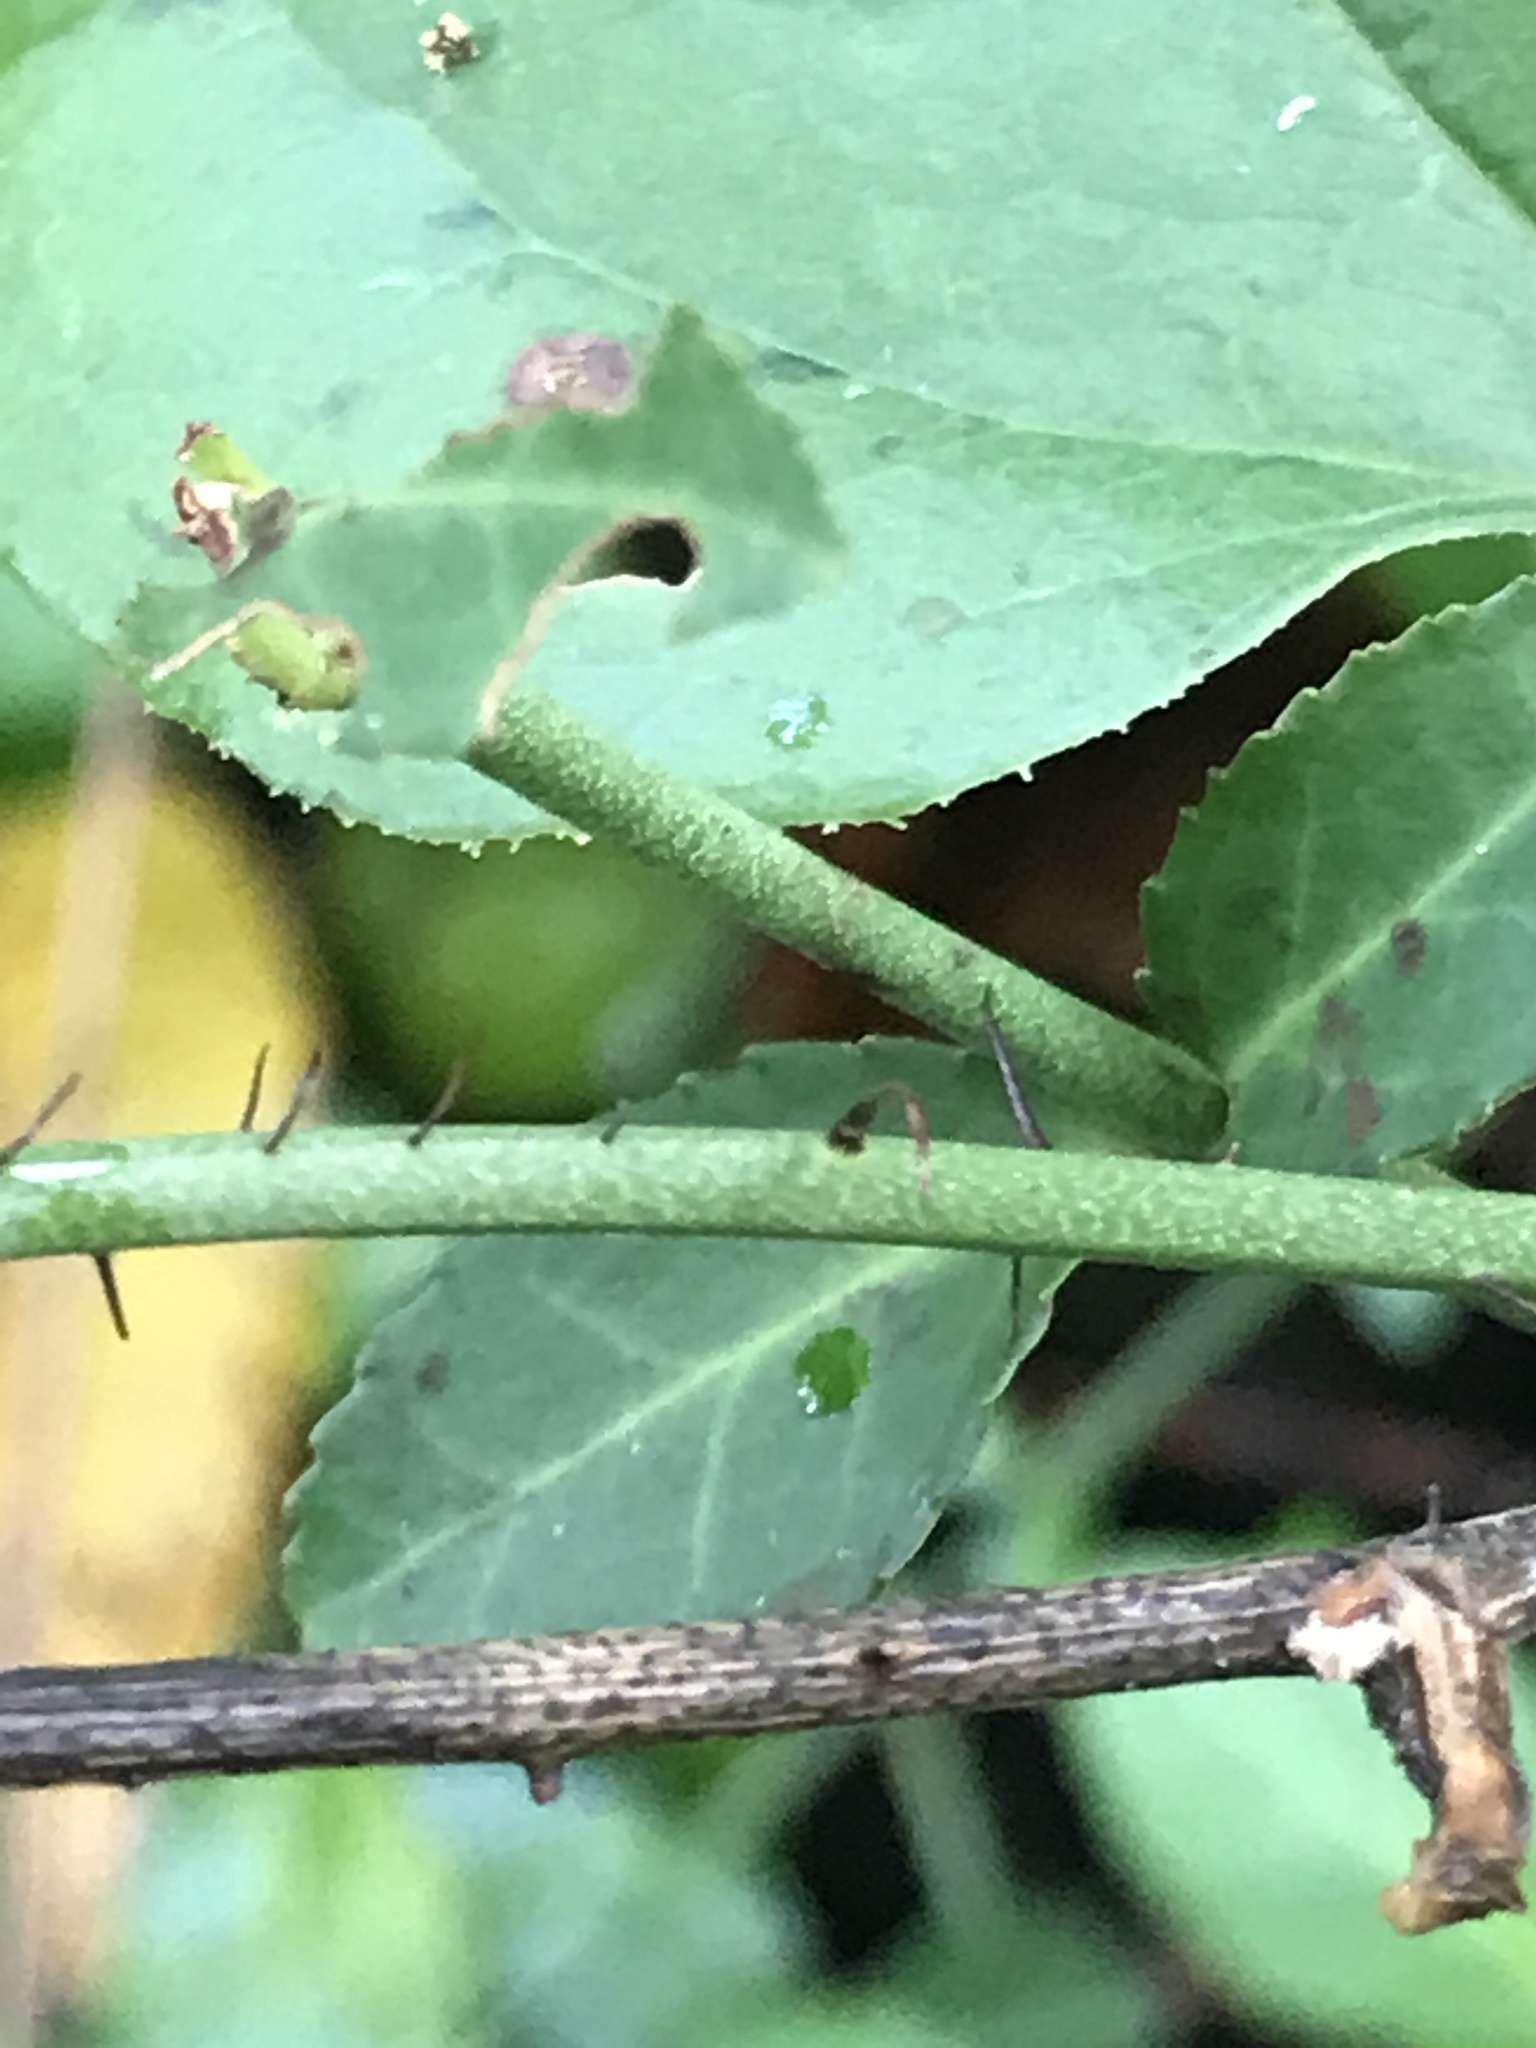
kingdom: Plantae
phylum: Tracheophyta
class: Liliopsida
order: Liliales
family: Smilacaceae
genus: Smilax
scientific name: Smilax tamnoides
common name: Hellfetter
